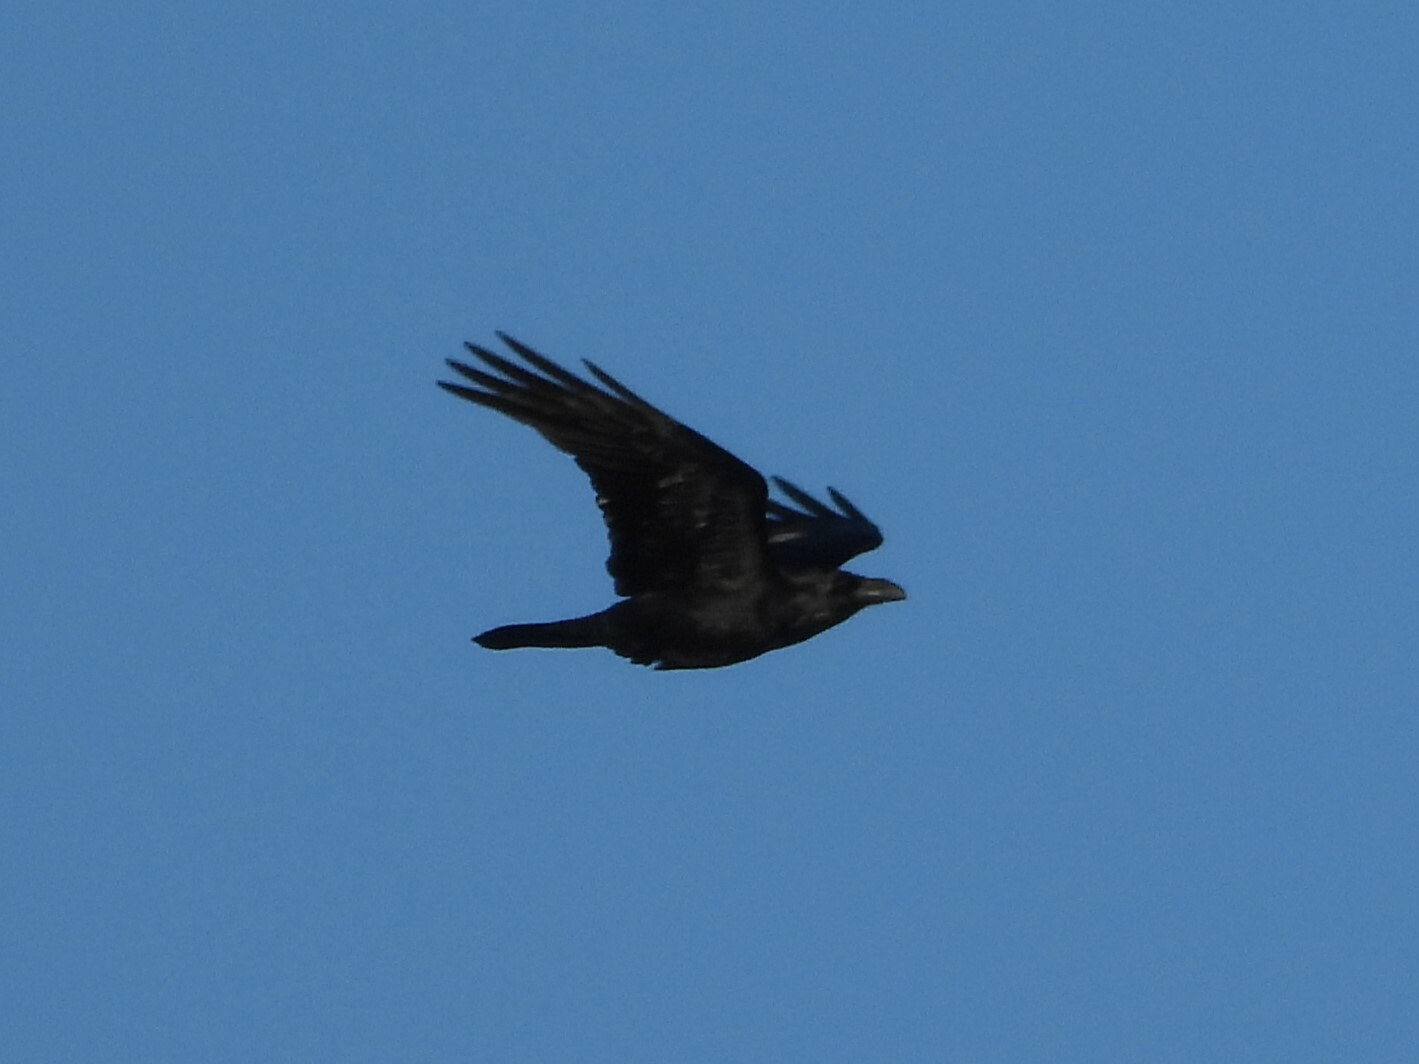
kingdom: Animalia
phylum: Chordata
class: Aves
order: Passeriformes
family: Corvidae
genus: Corvus
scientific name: Corvus corax
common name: Common raven
